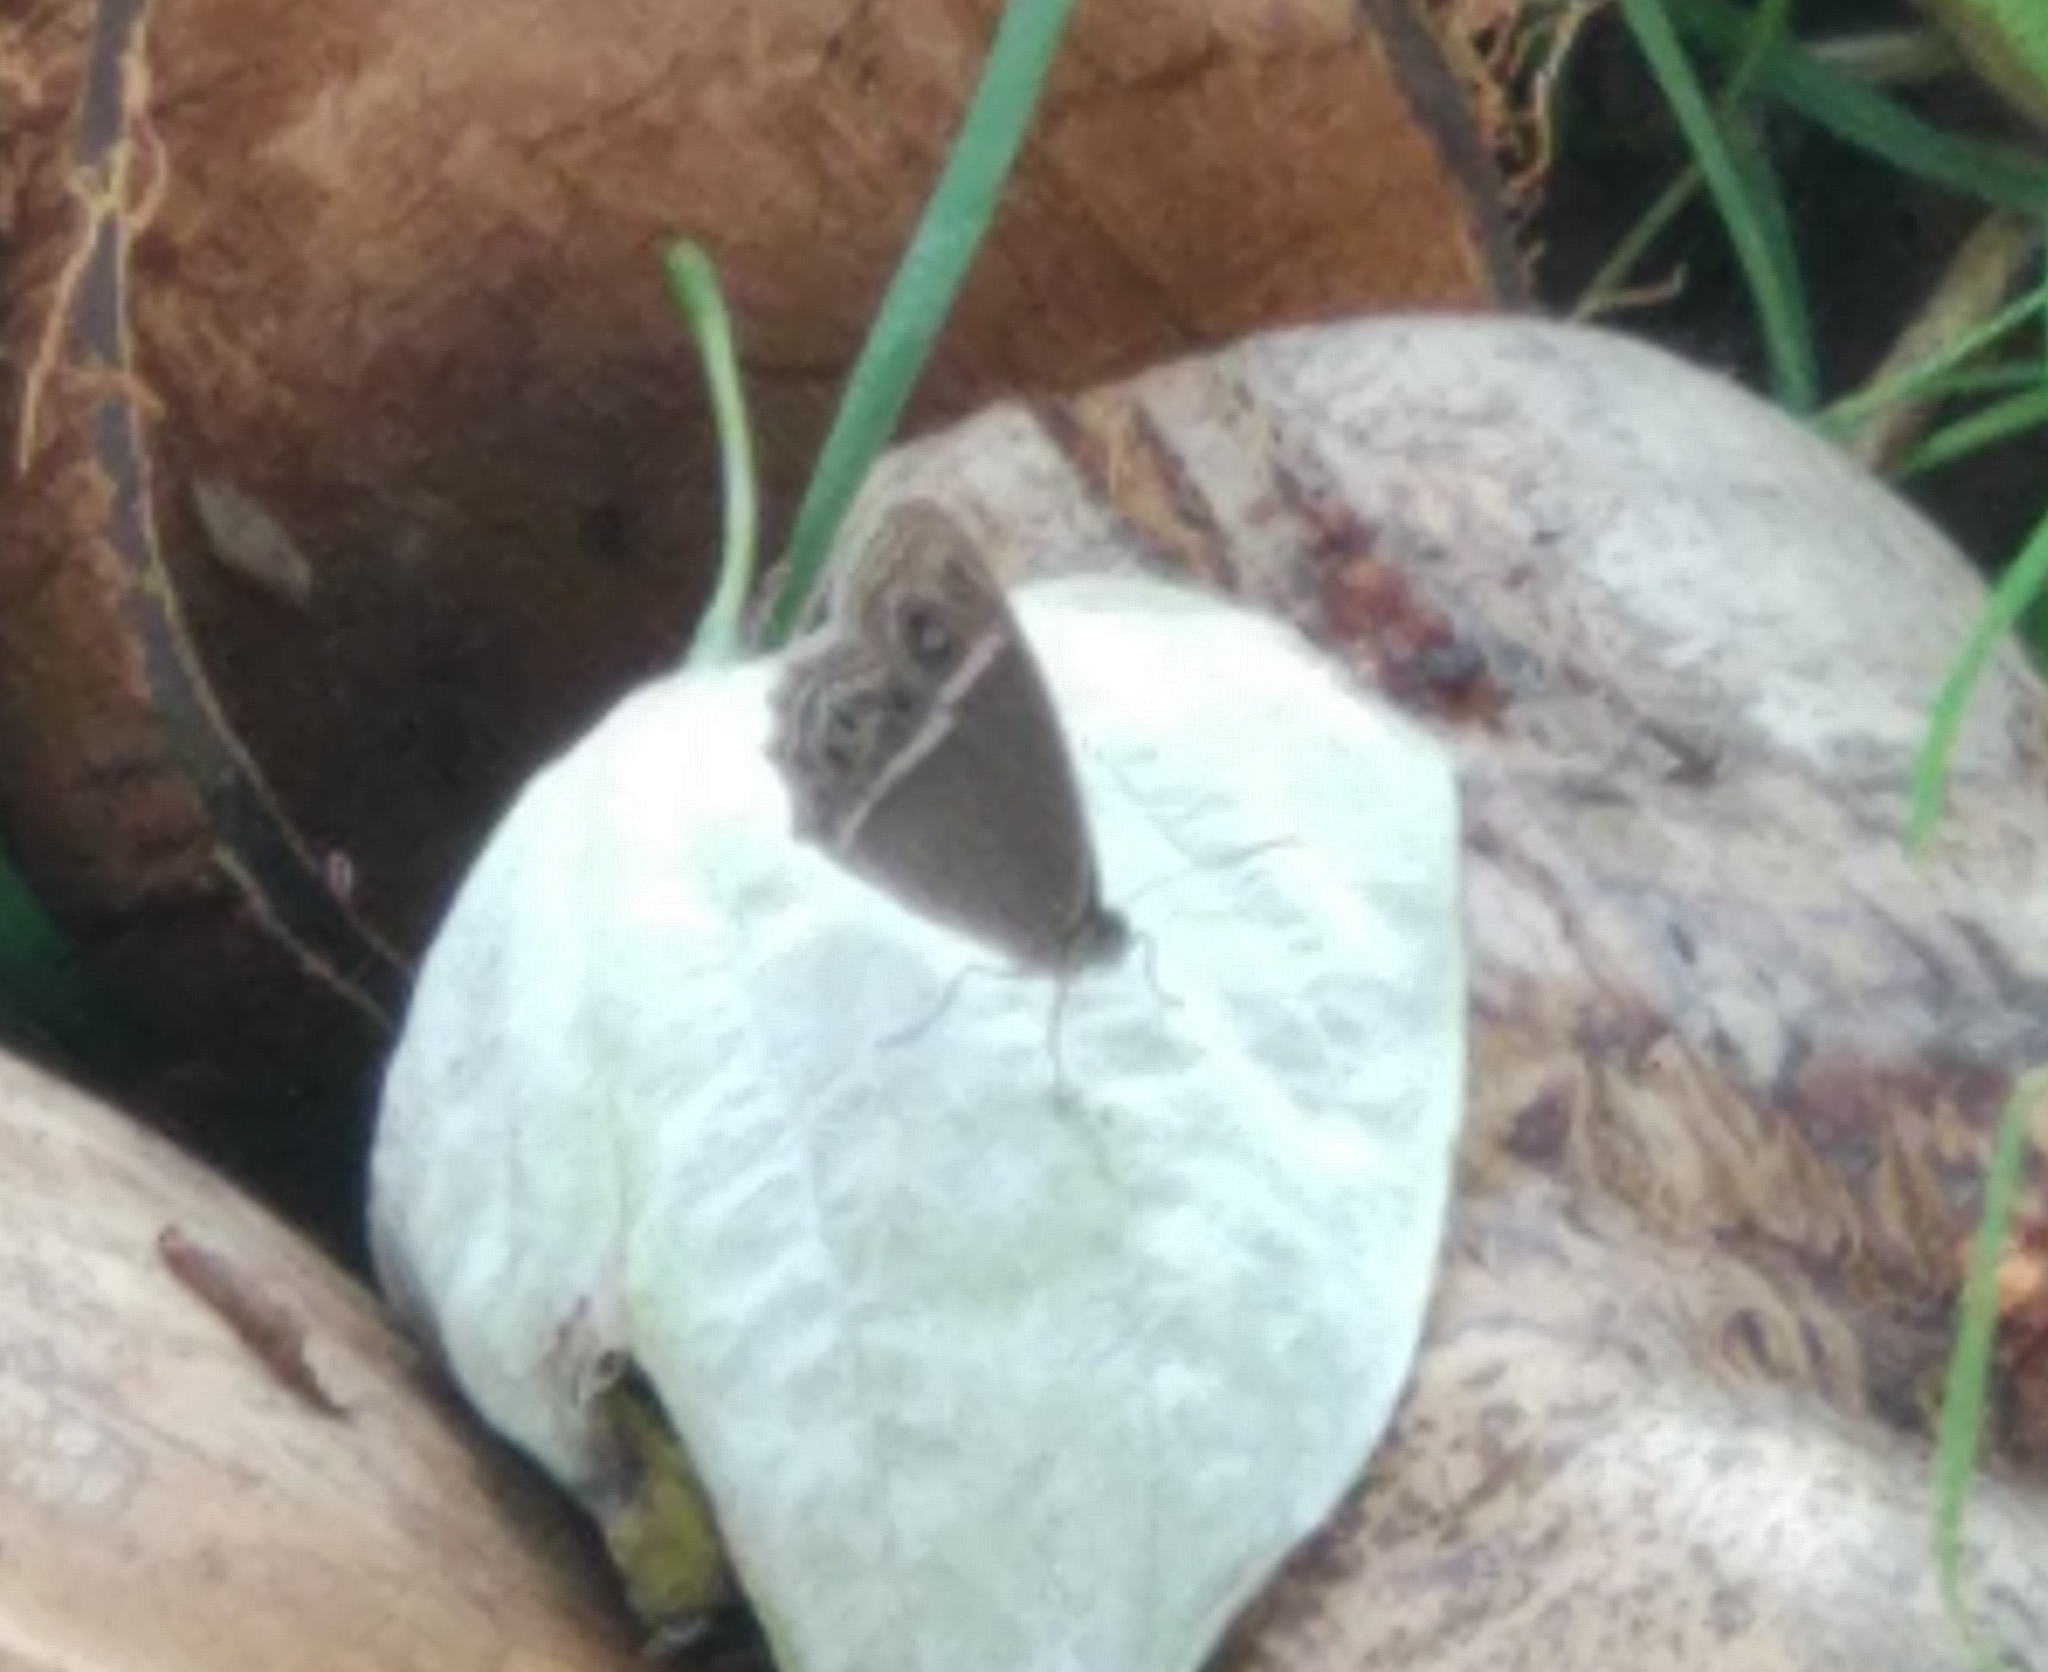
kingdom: Animalia
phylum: Arthropoda
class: Insecta
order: Lepidoptera
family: Nymphalidae
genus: Mycalesis
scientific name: Mycalesis mineus
